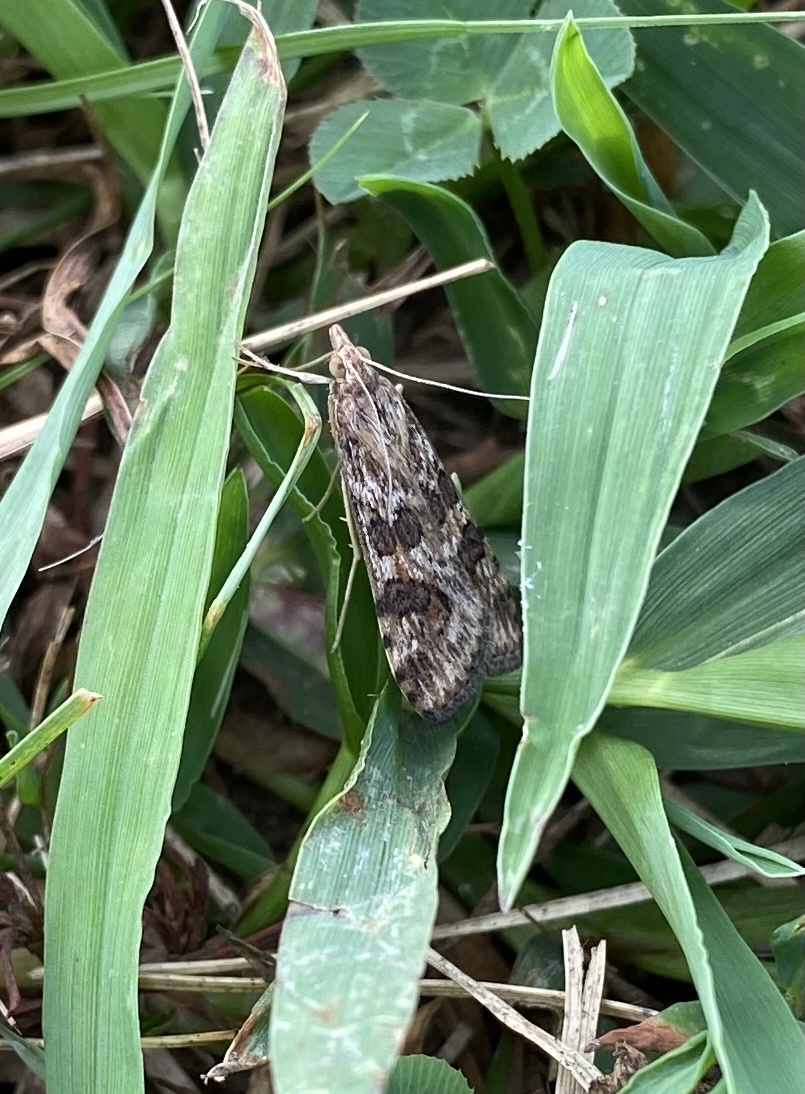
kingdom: Animalia
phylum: Arthropoda
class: Insecta
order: Lepidoptera
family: Crambidae
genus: Nomophila
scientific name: Nomophila nearctica
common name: American rush veneer
